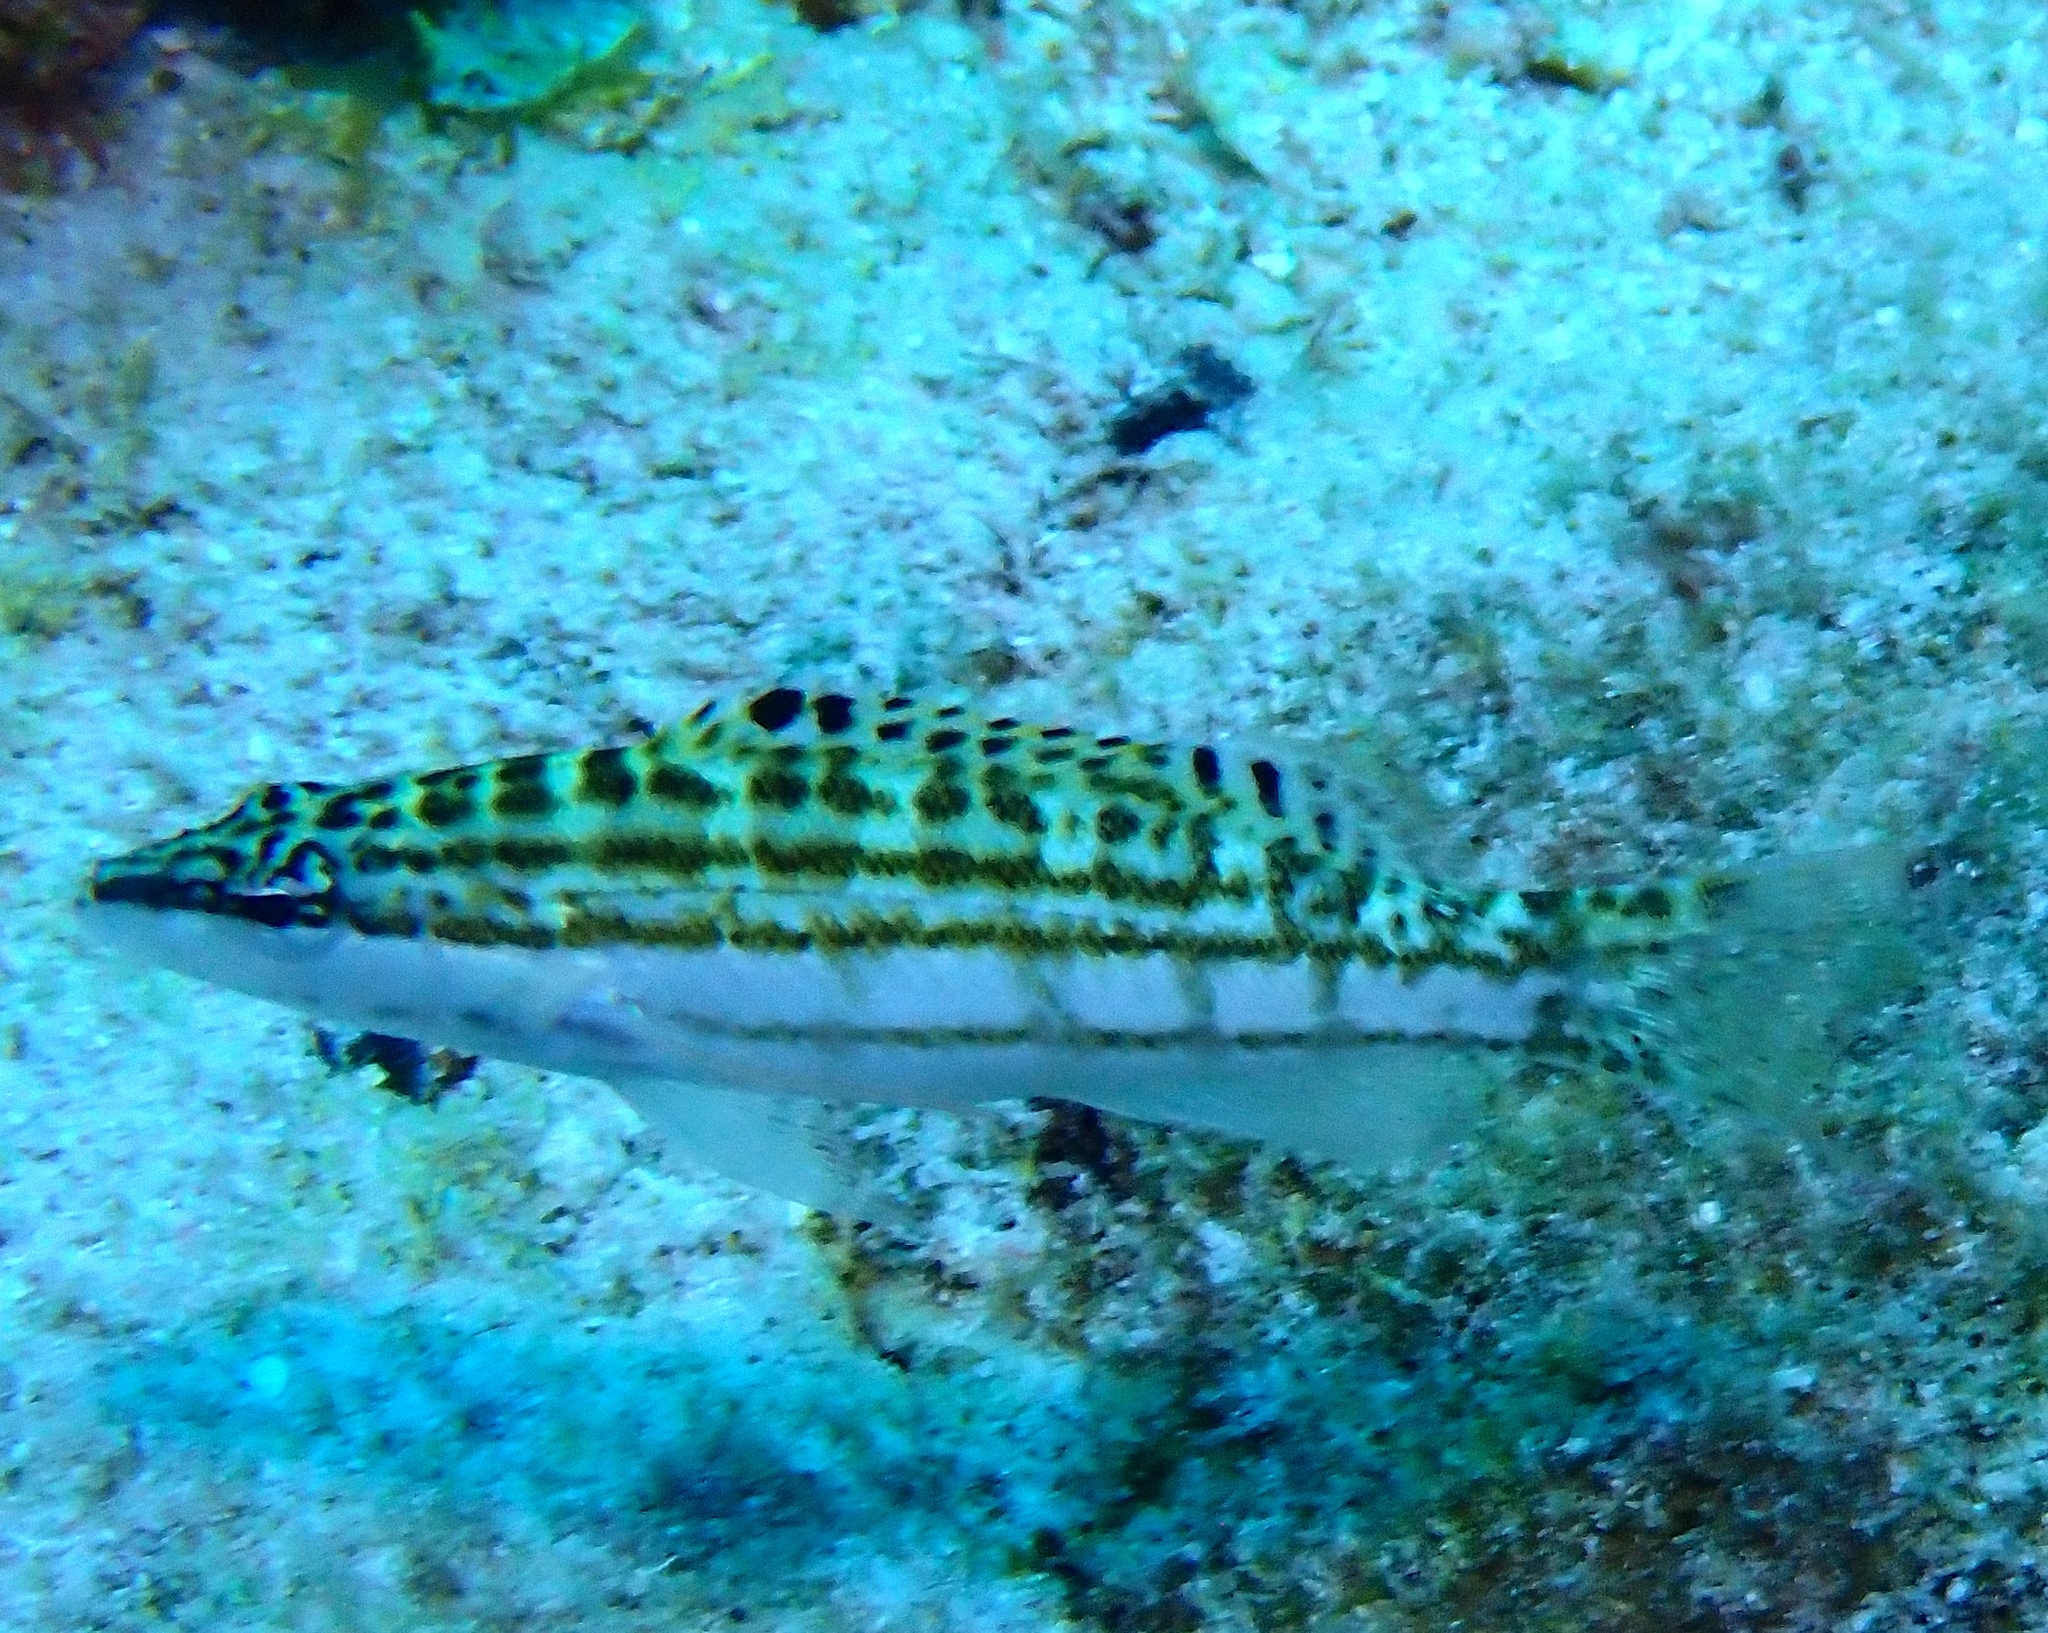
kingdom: Animalia
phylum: Chordata
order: Perciformes
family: Serranidae
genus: Serranus
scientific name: Serranus tigrinus
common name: Harlequin bass
